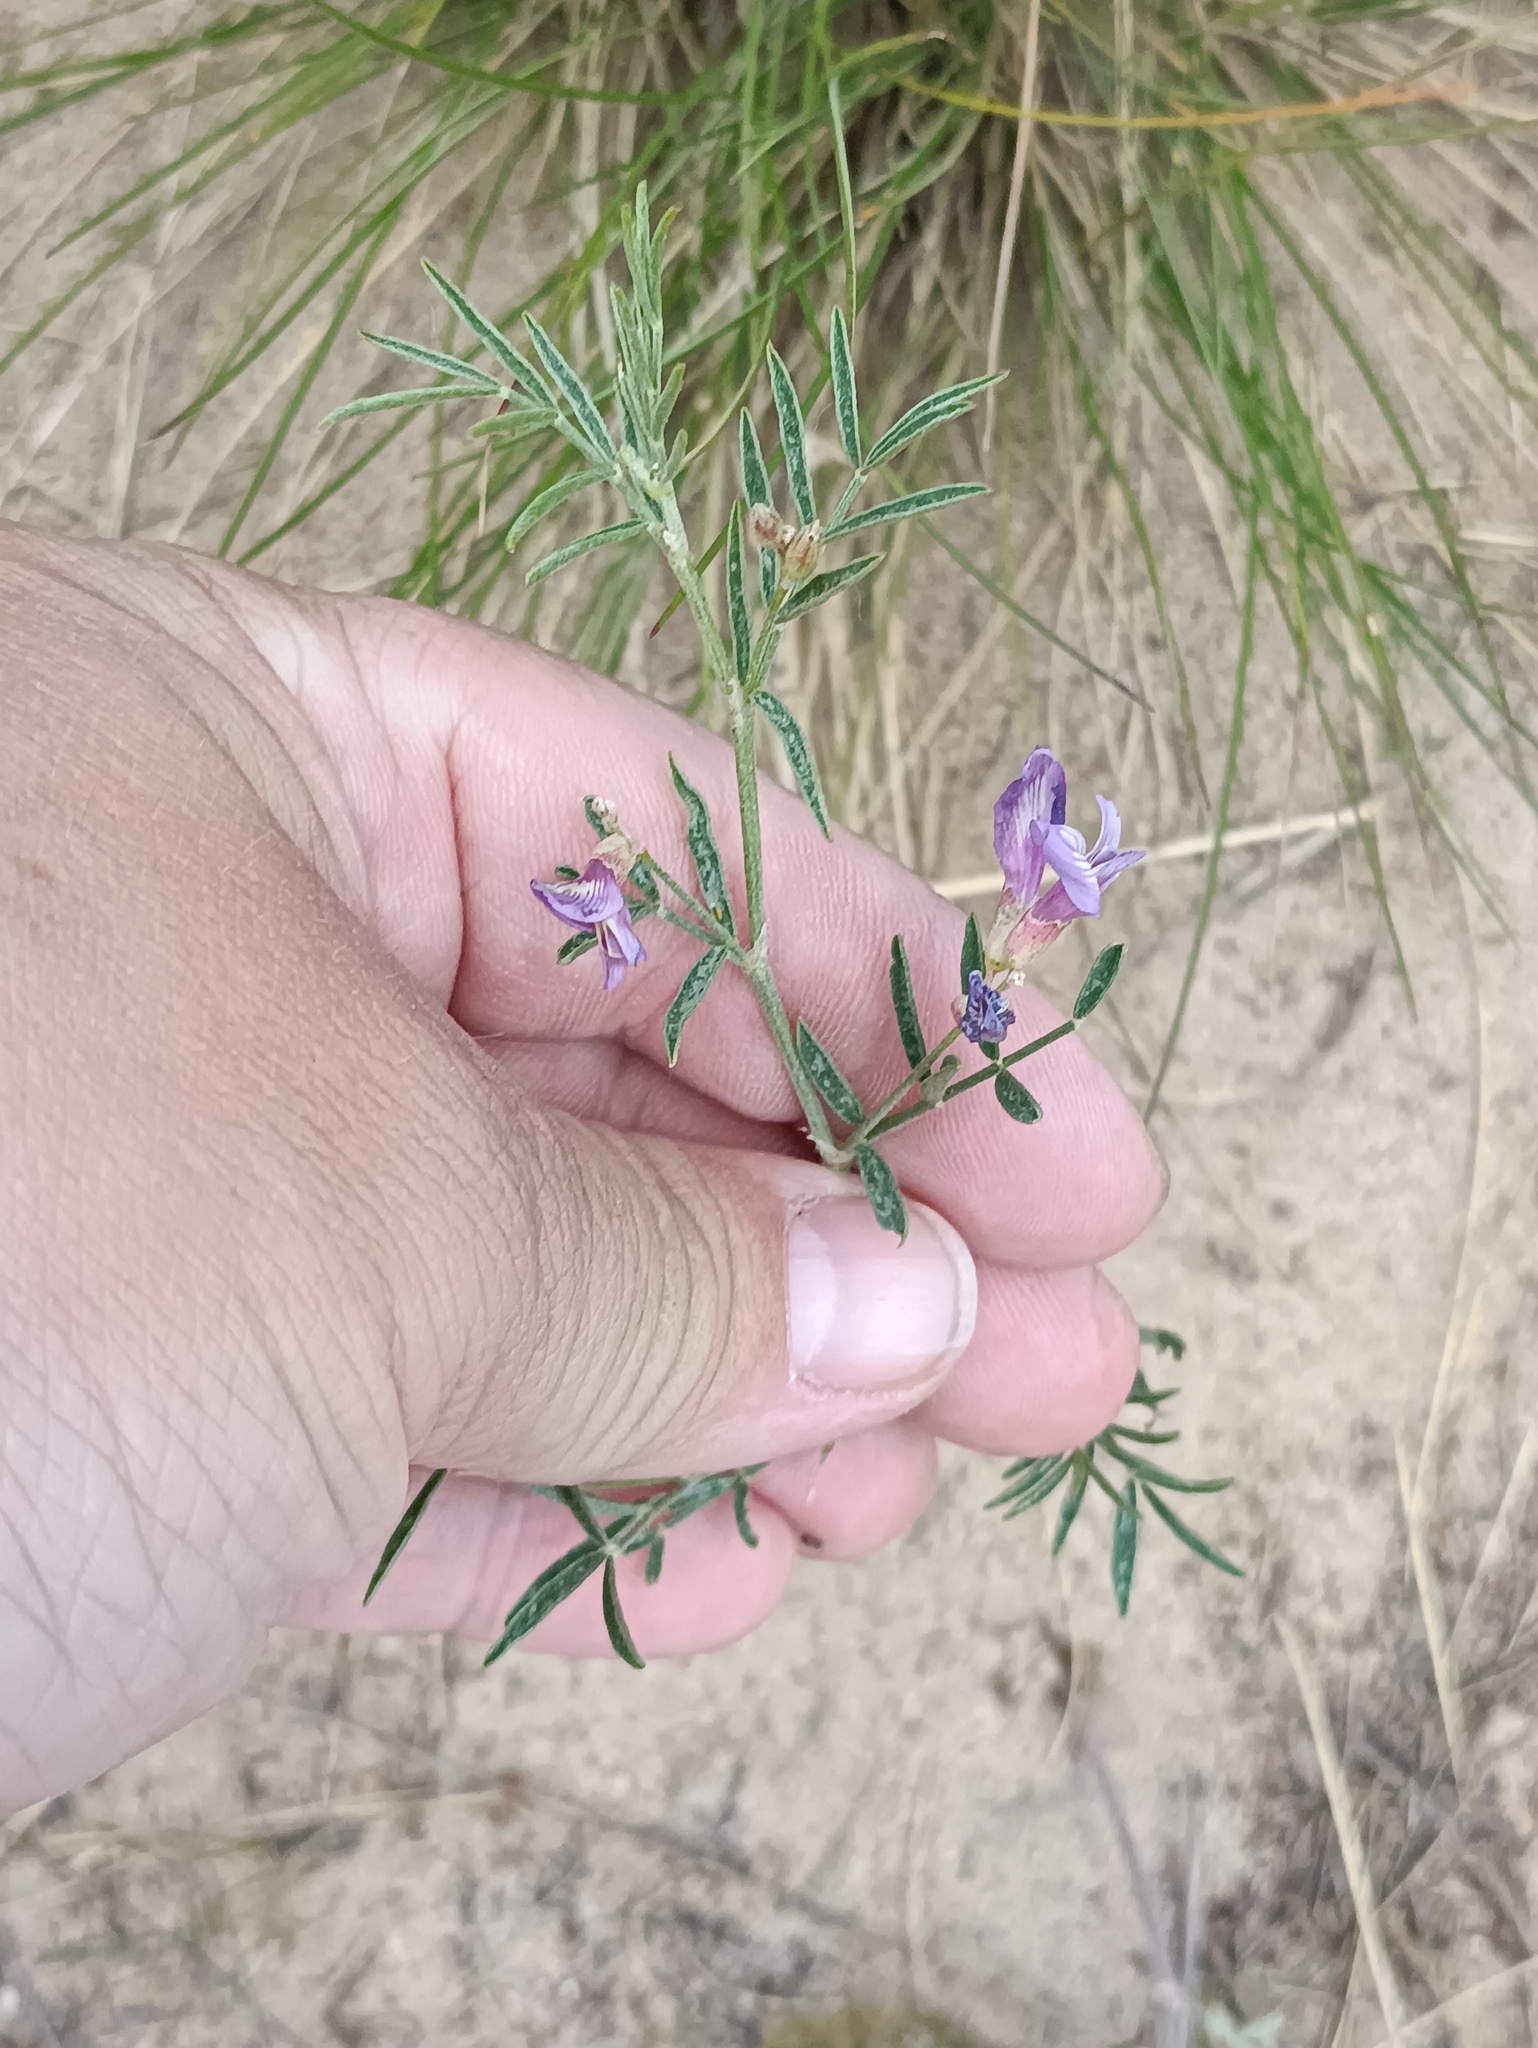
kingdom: Plantae
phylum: Tracheophyta
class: Magnoliopsida
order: Fabales
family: Fabaceae
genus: Astragalus
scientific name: Astragalus arenarius
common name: Arenarious milk-vetch
